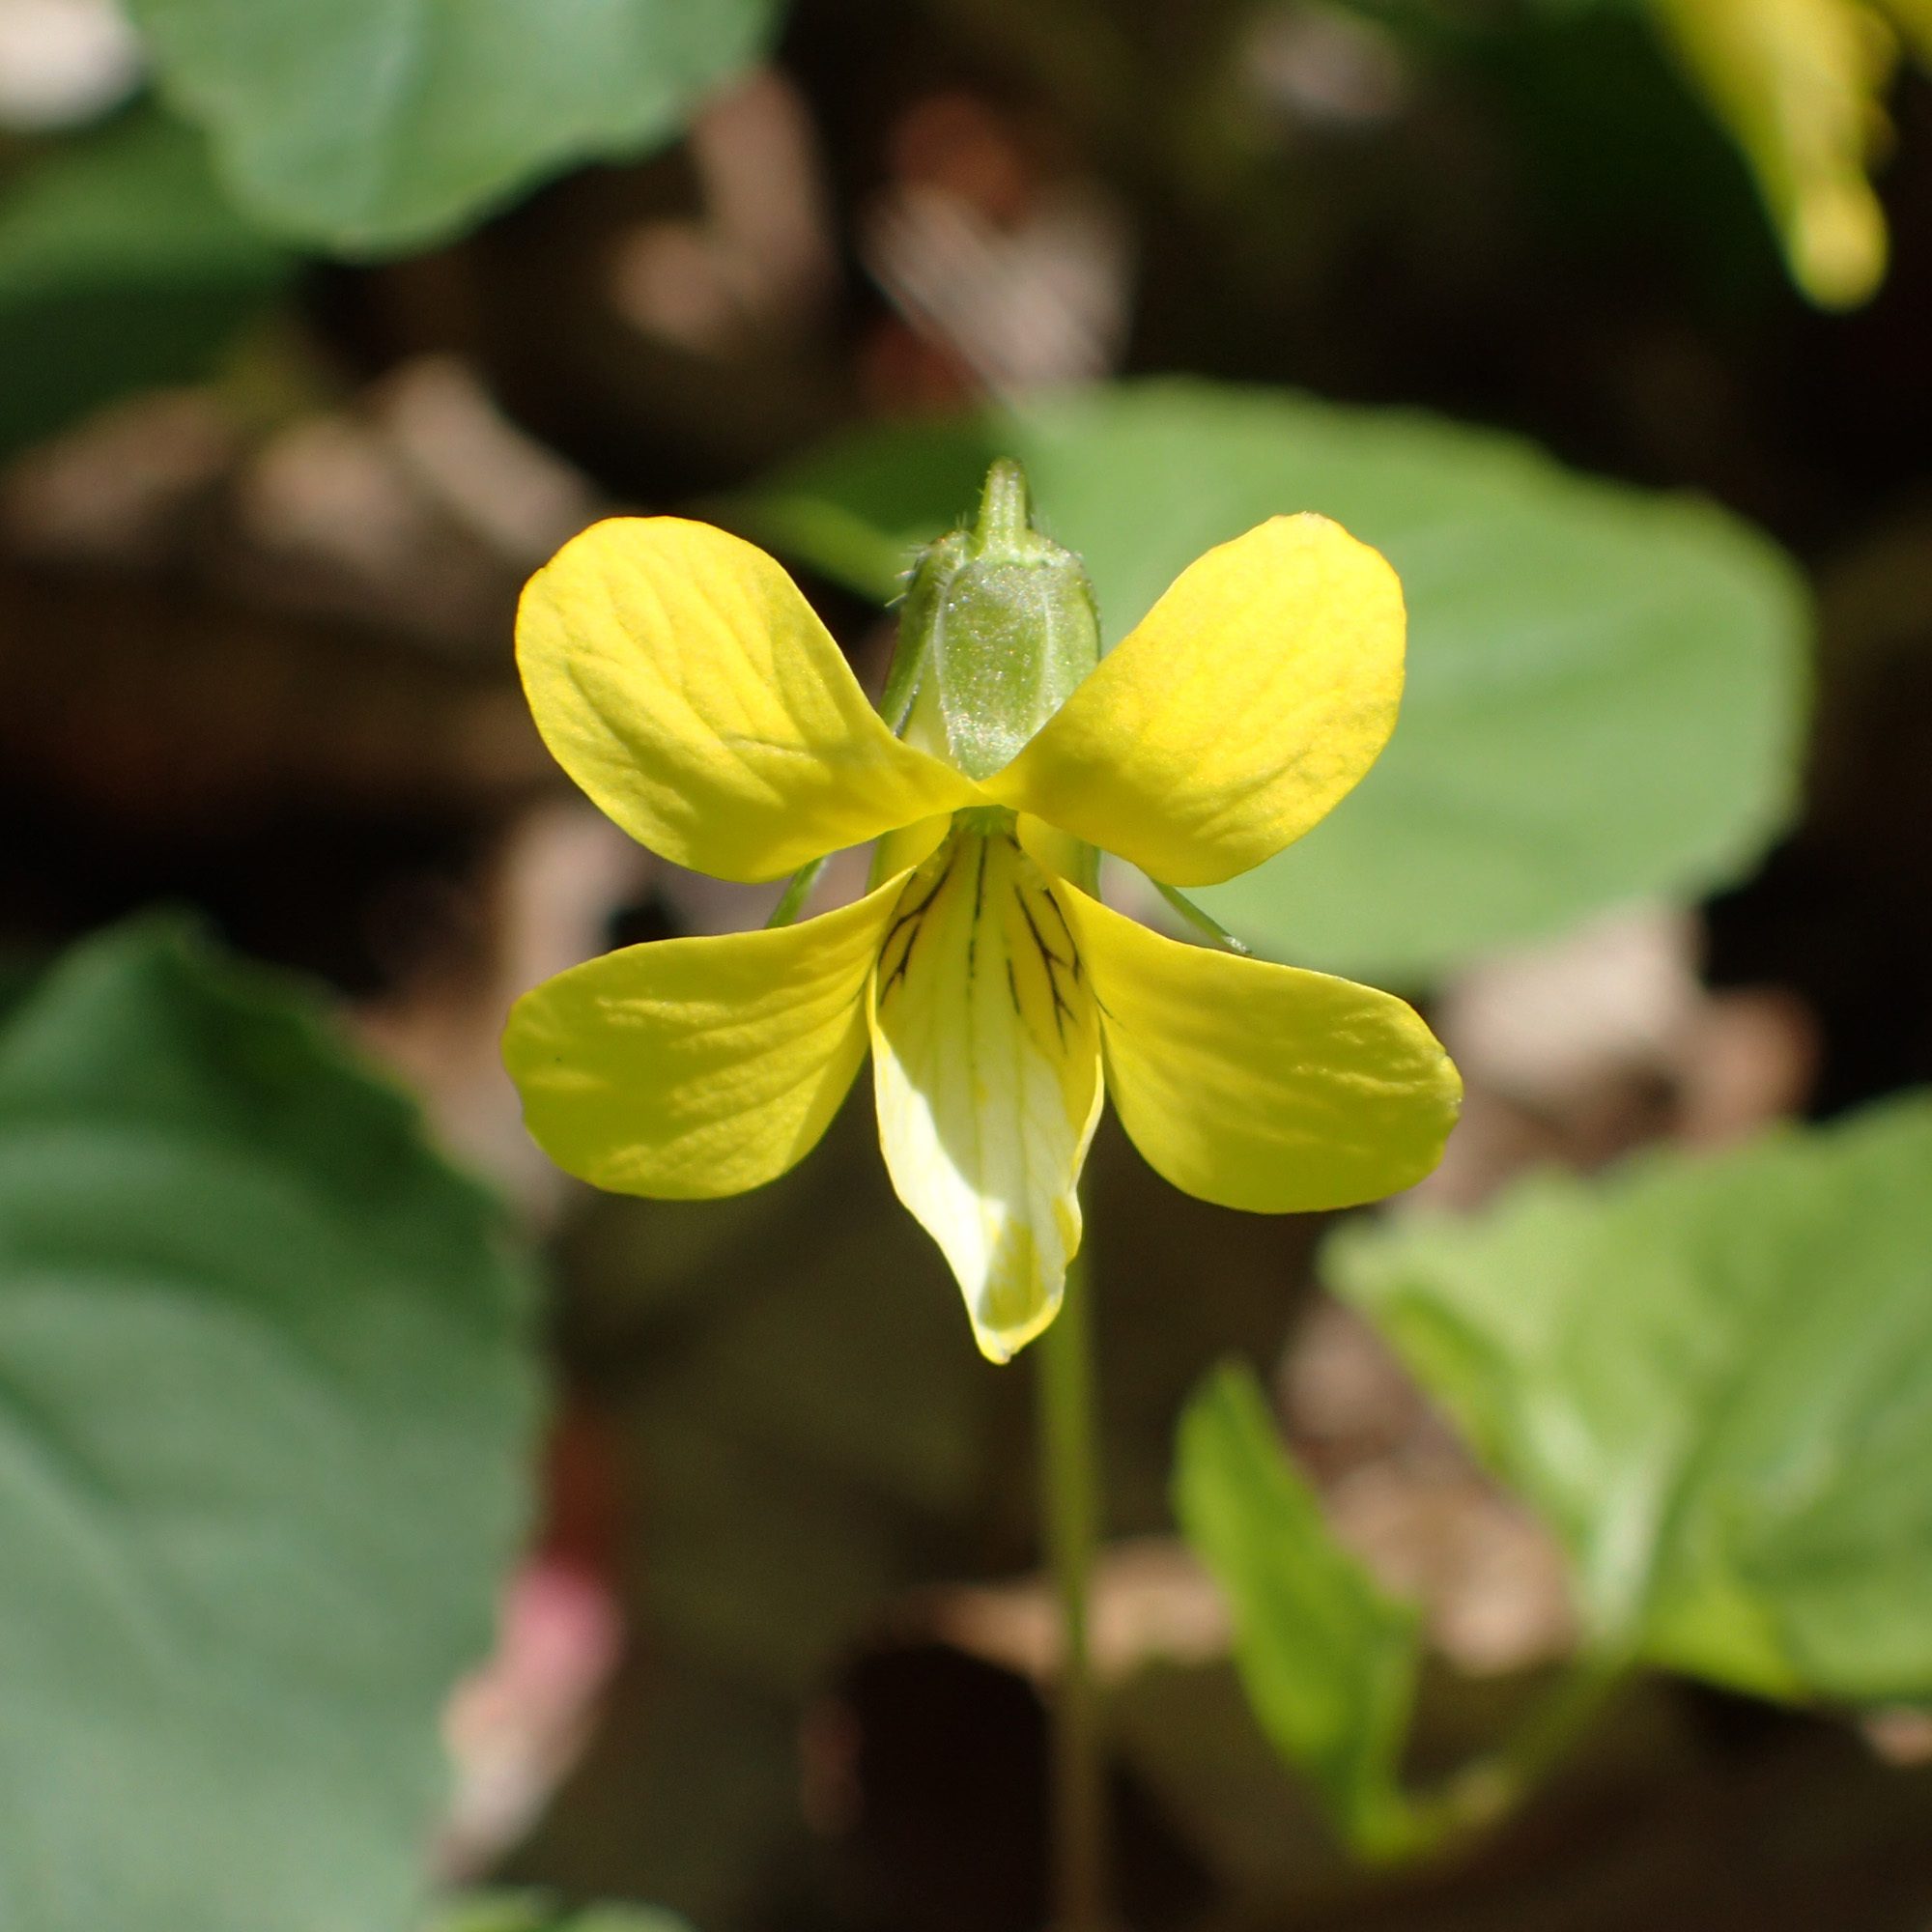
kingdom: Plantae
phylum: Tracheophyta
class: Magnoliopsida
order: Malpighiales
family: Violaceae
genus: Viola
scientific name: Viola eriocarpa
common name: Smooth yellow violet
